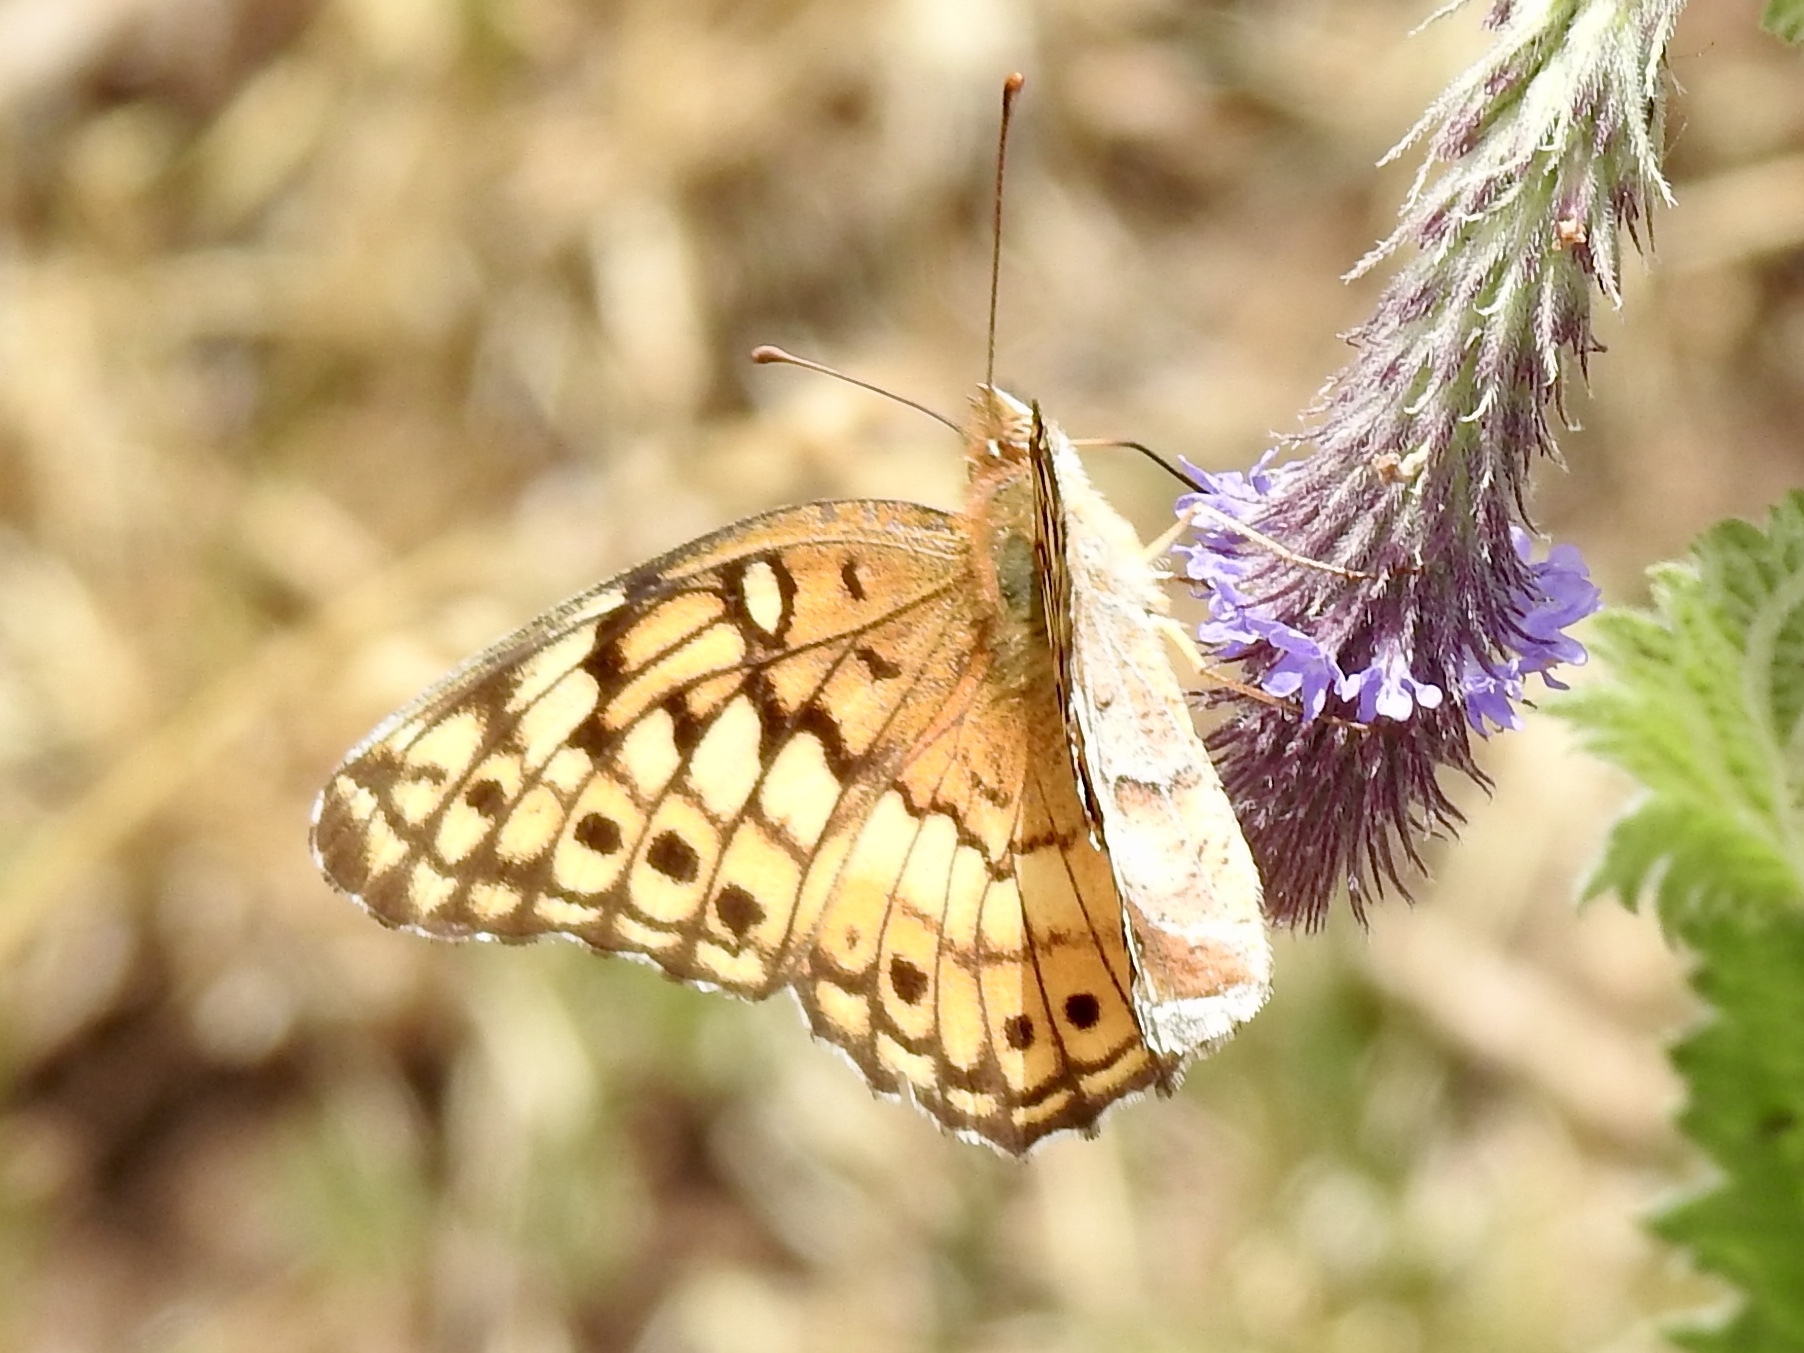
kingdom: Animalia
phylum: Arthropoda
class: Insecta
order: Lepidoptera
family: Nymphalidae
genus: Euptoieta
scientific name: Euptoieta claudia
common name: Variegated fritillary
